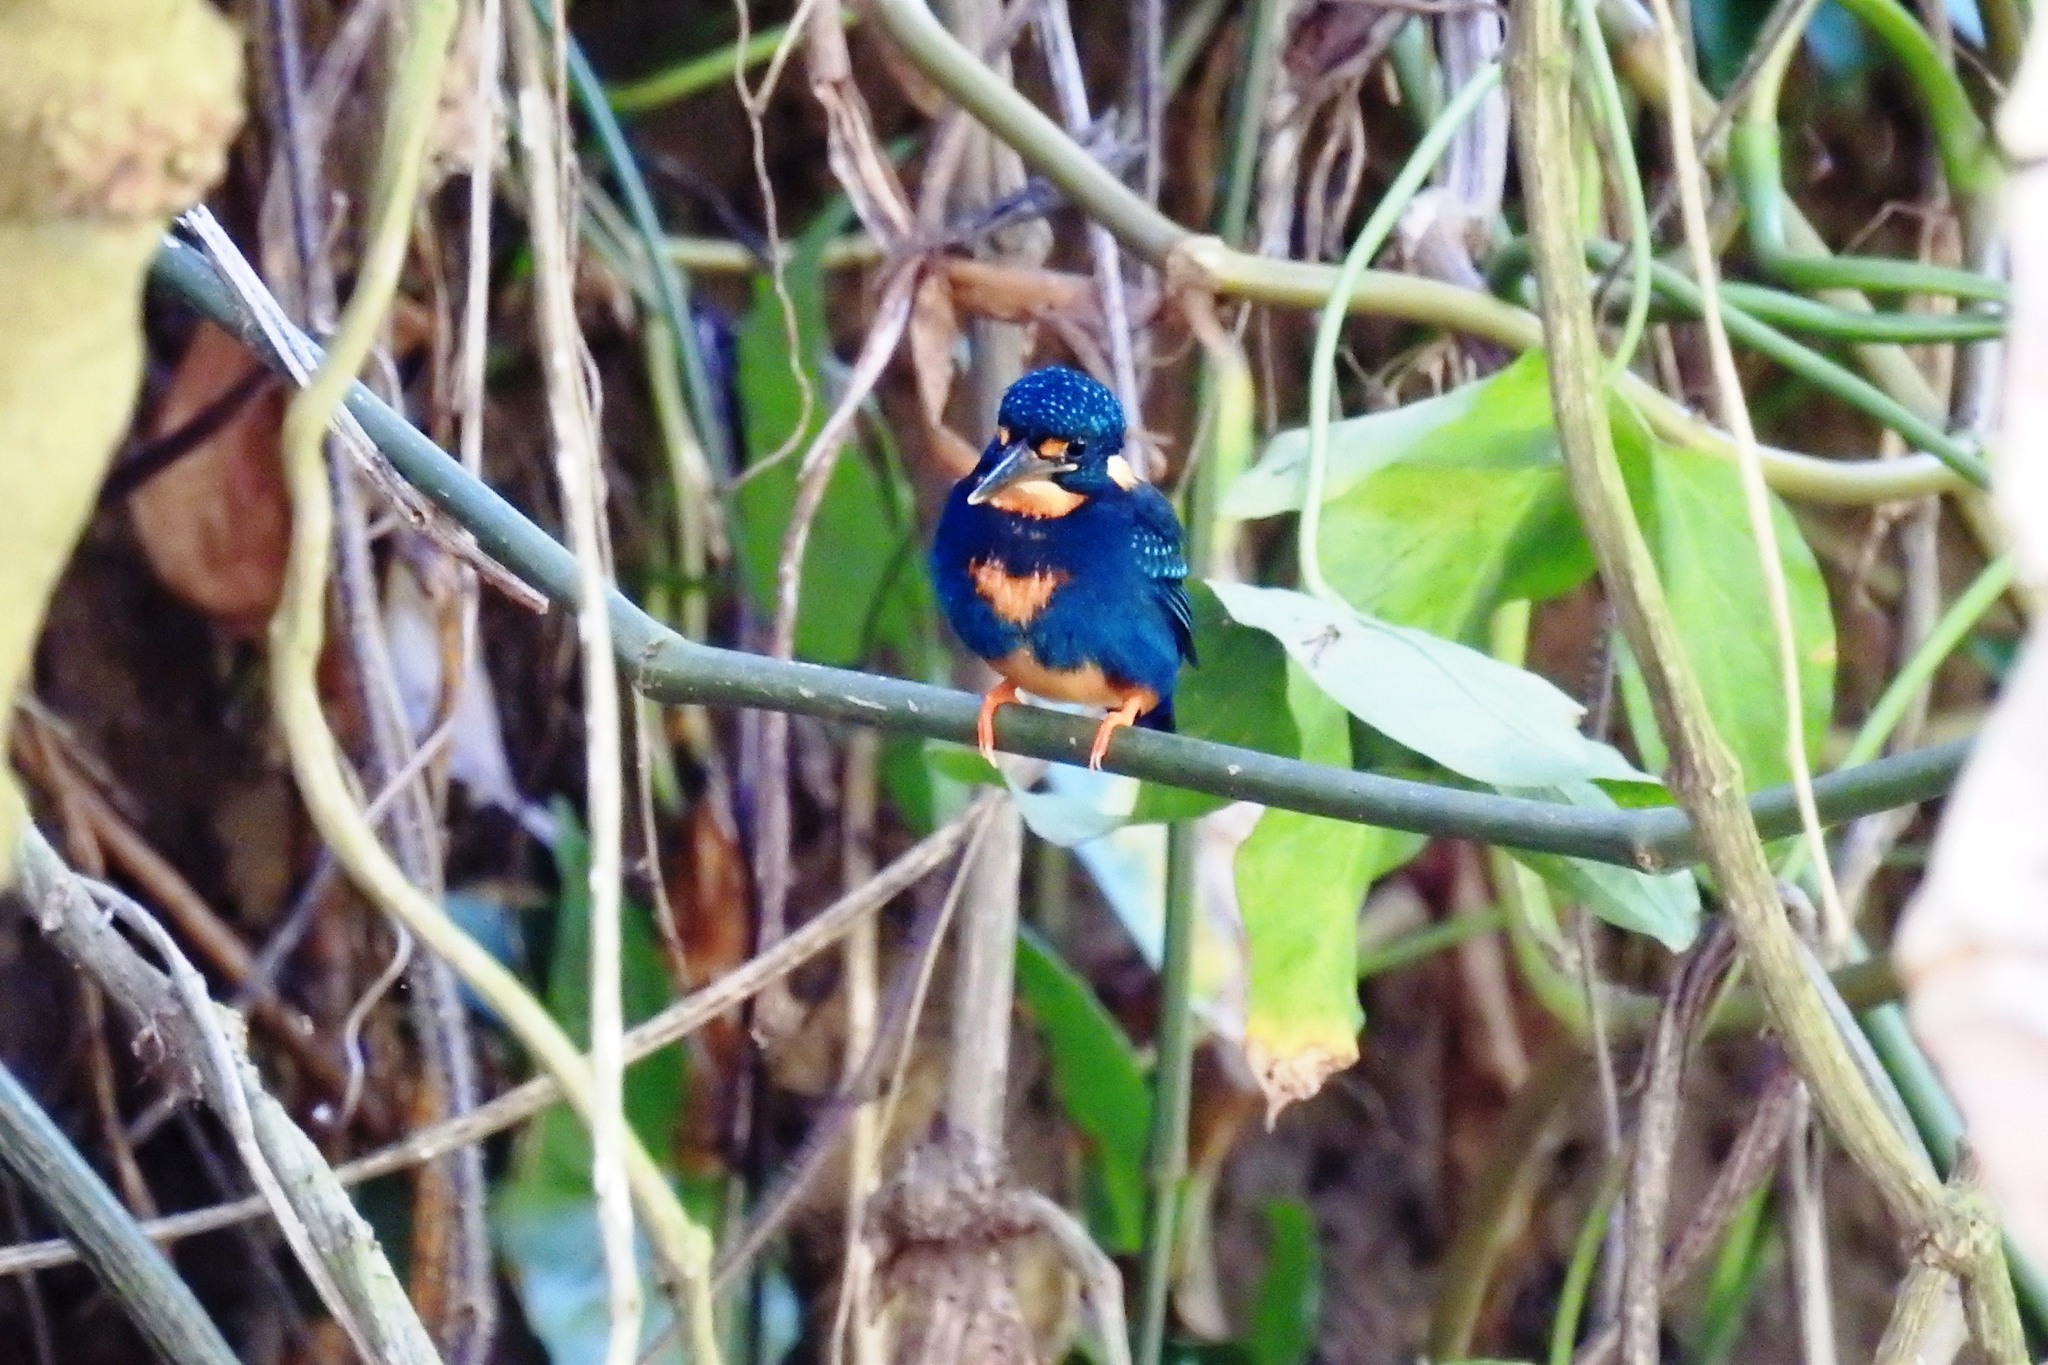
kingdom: Animalia
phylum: Chordata
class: Aves
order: Coraciiformes
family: Alcedinidae
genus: Ceyx
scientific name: Ceyx cyanopectus
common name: Indigo-banded kingfisher
